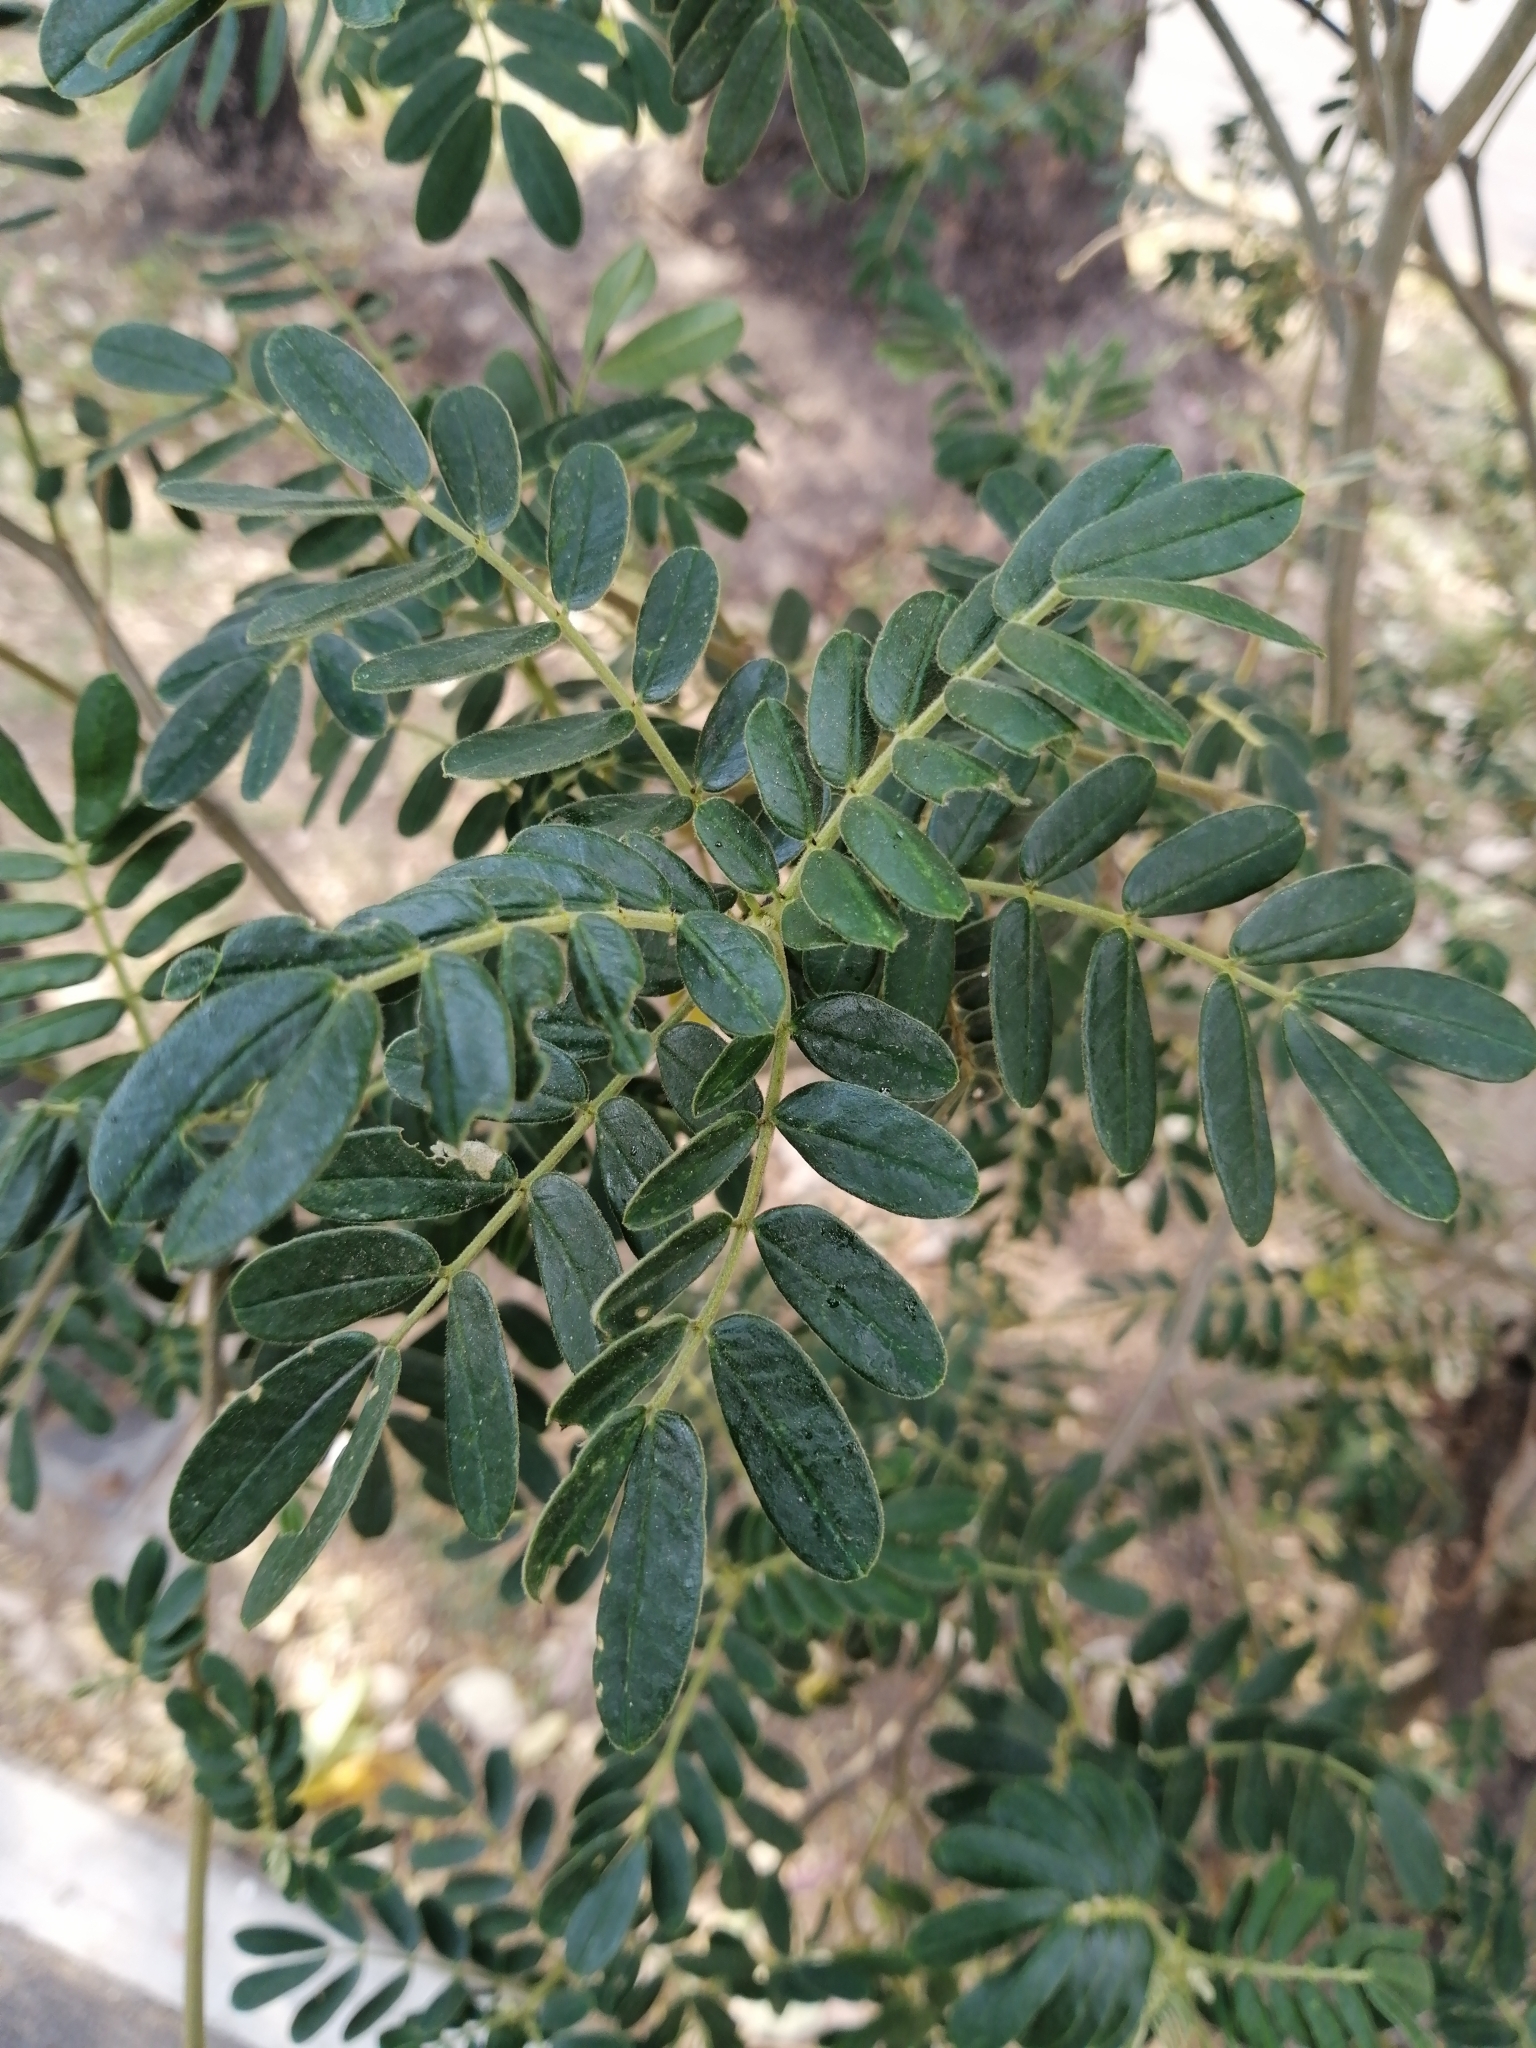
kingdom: Plantae
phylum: Tracheophyta
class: Magnoliopsida
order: Fabales
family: Fabaceae
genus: Senna
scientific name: Senna multiglandulosa
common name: Glandular senna
